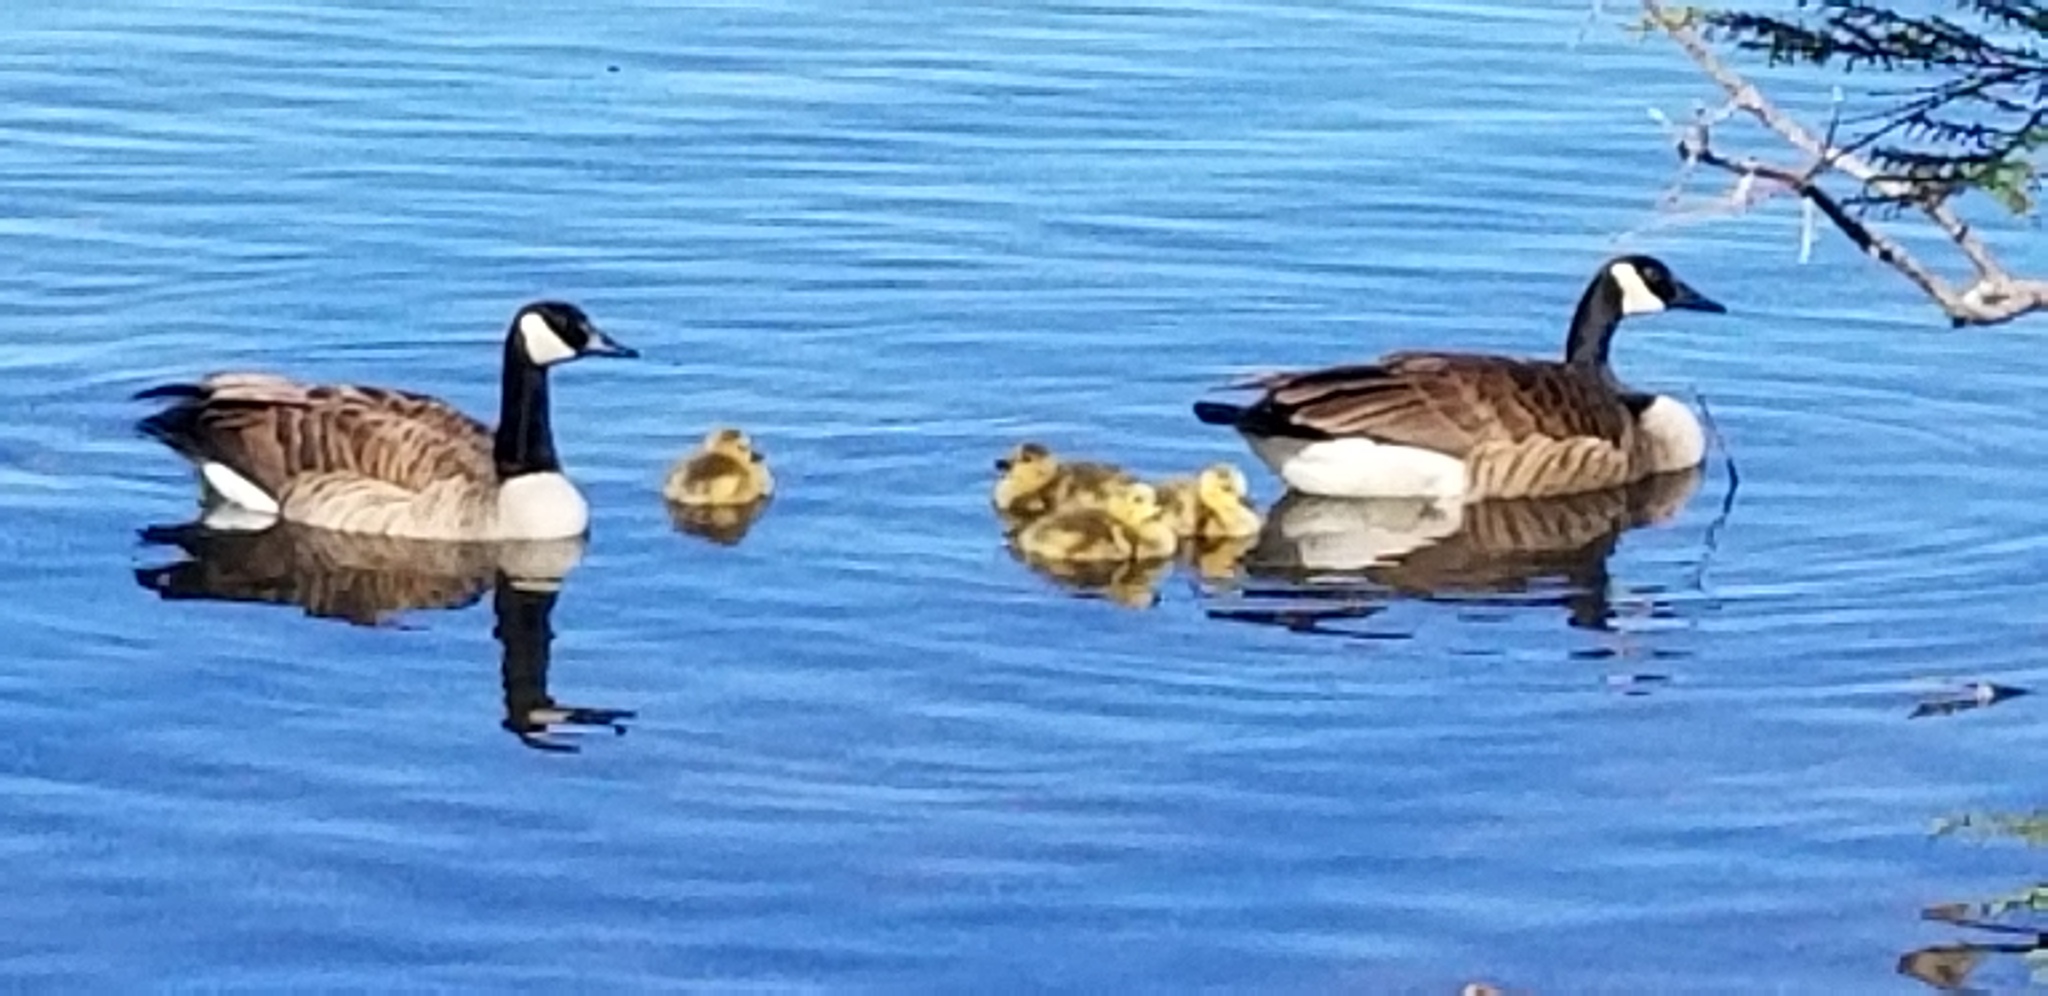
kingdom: Animalia
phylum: Chordata
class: Aves
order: Anseriformes
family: Anatidae
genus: Branta
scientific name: Branta canadensis
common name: Canada goose
